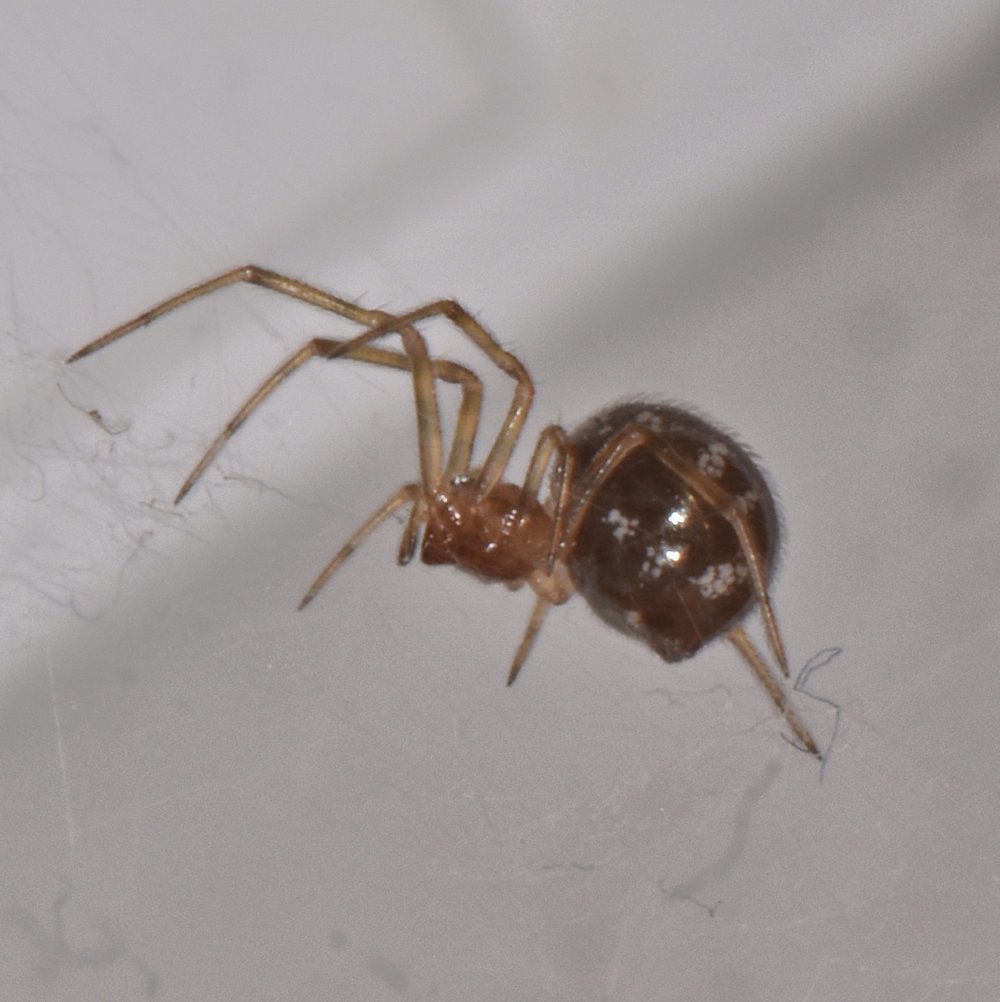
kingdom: Animalia
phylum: Arthropoda
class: Arachnida
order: Araneae
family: Theridiidae
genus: Steatoda
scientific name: Steatoda triangulosa
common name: Triangulate bud spider
